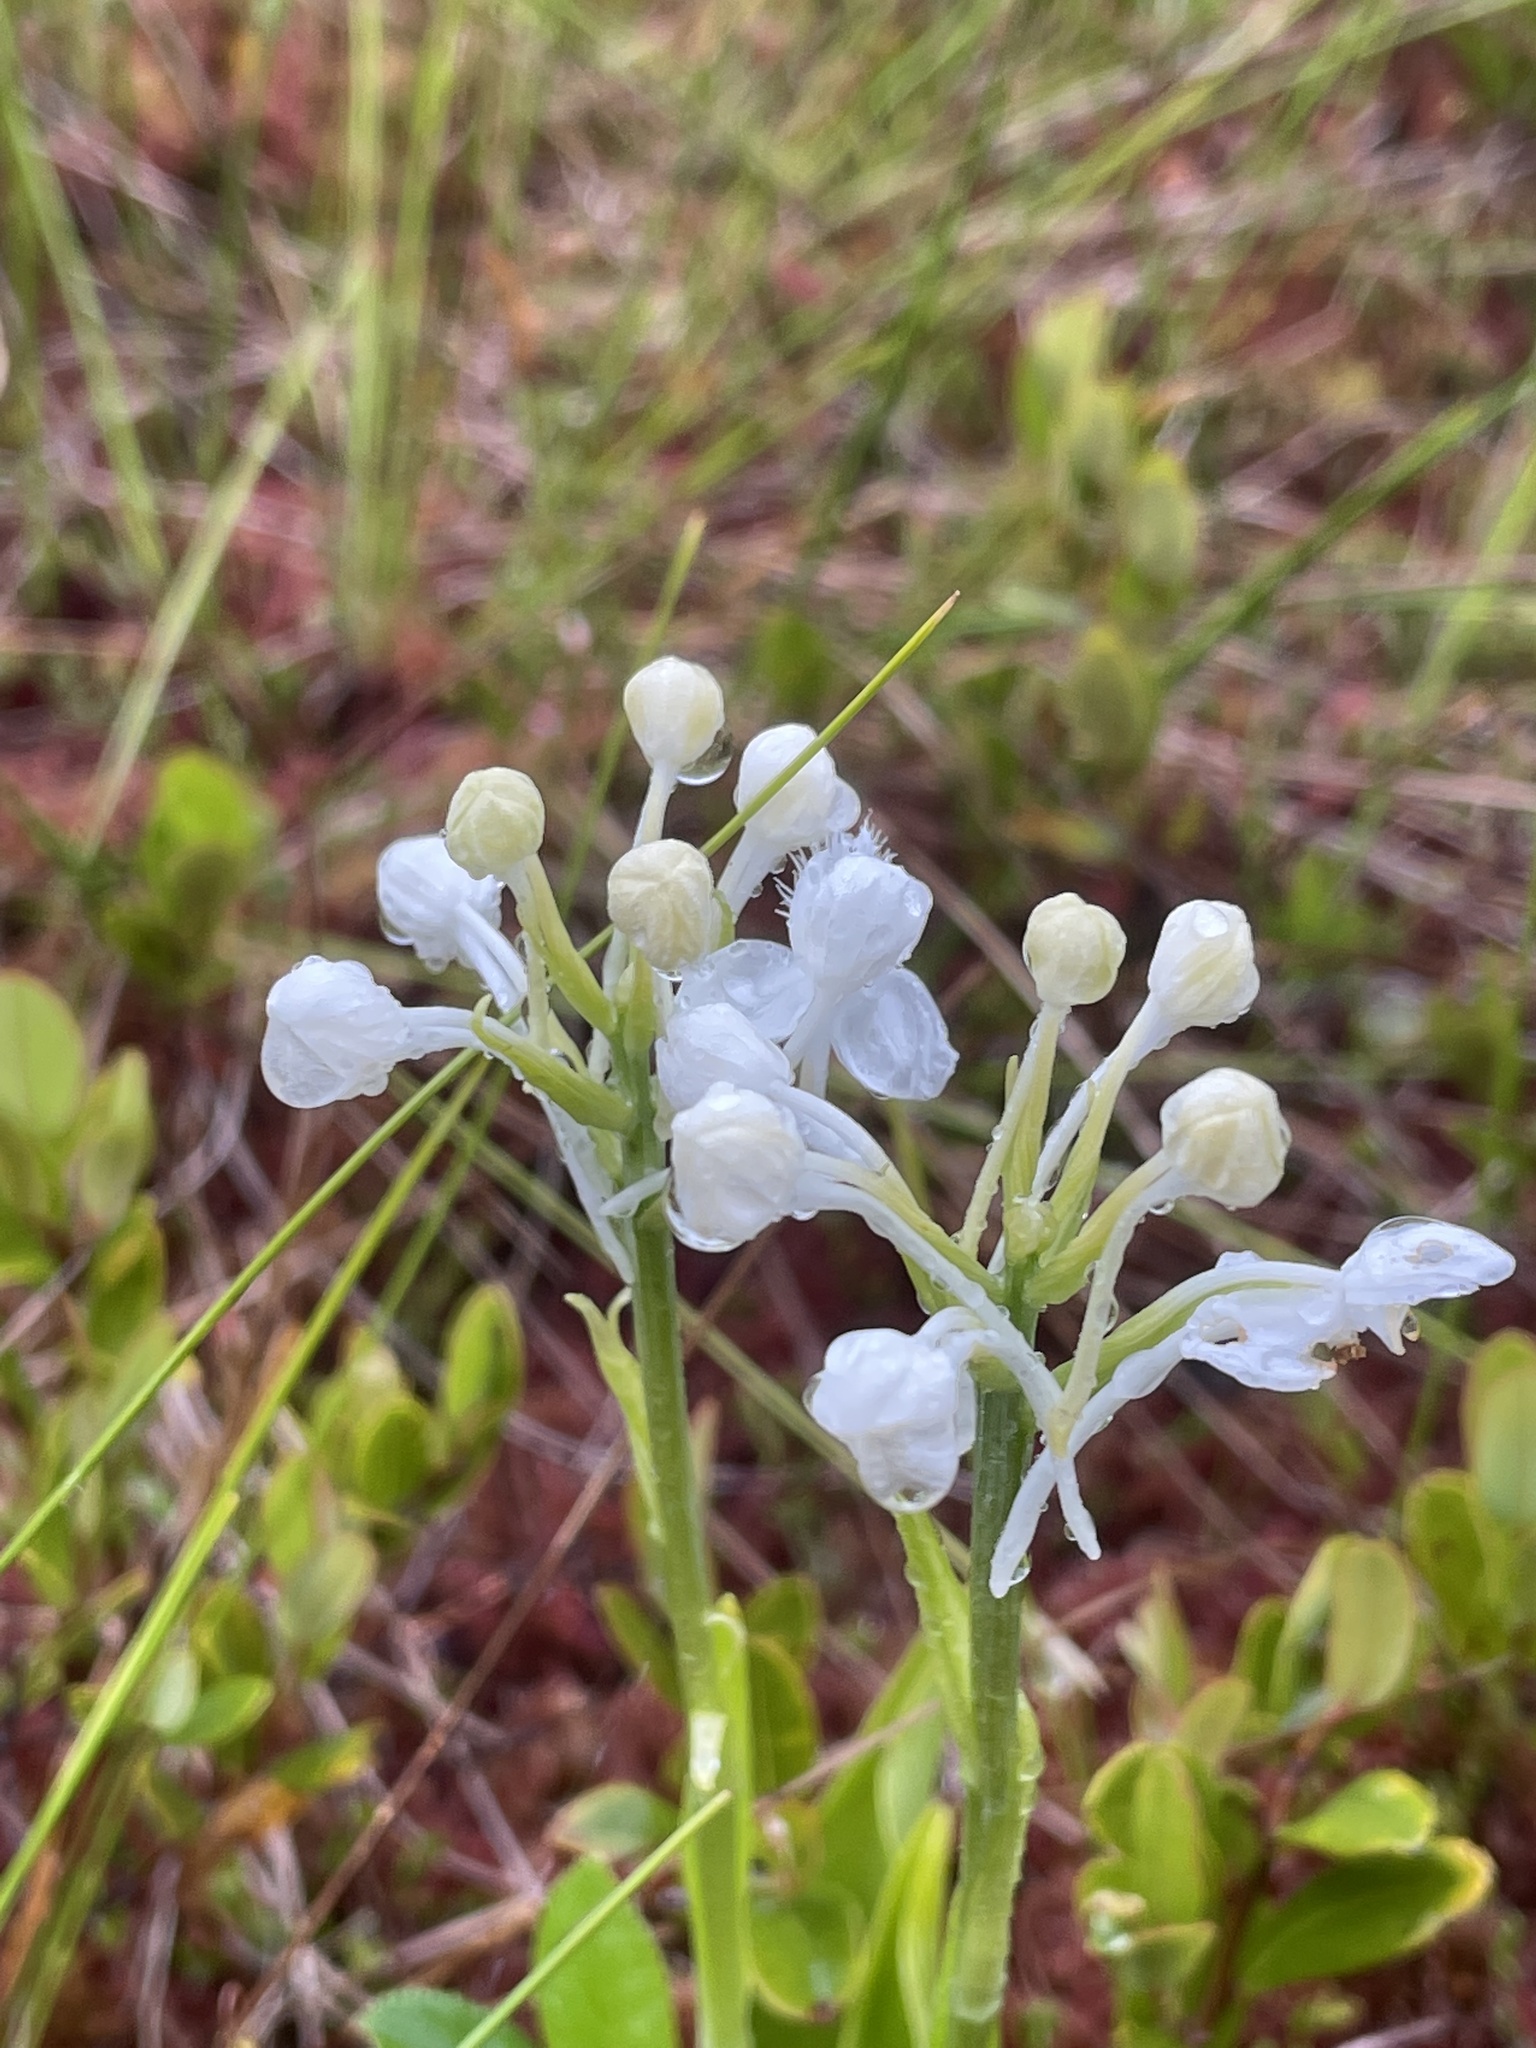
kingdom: Plantae
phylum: Tracheophyta
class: Liliopsida
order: Asparagales
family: Orchidaceae
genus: Platanthera
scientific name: Platanthera blephariglottis
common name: White fringed orchid
